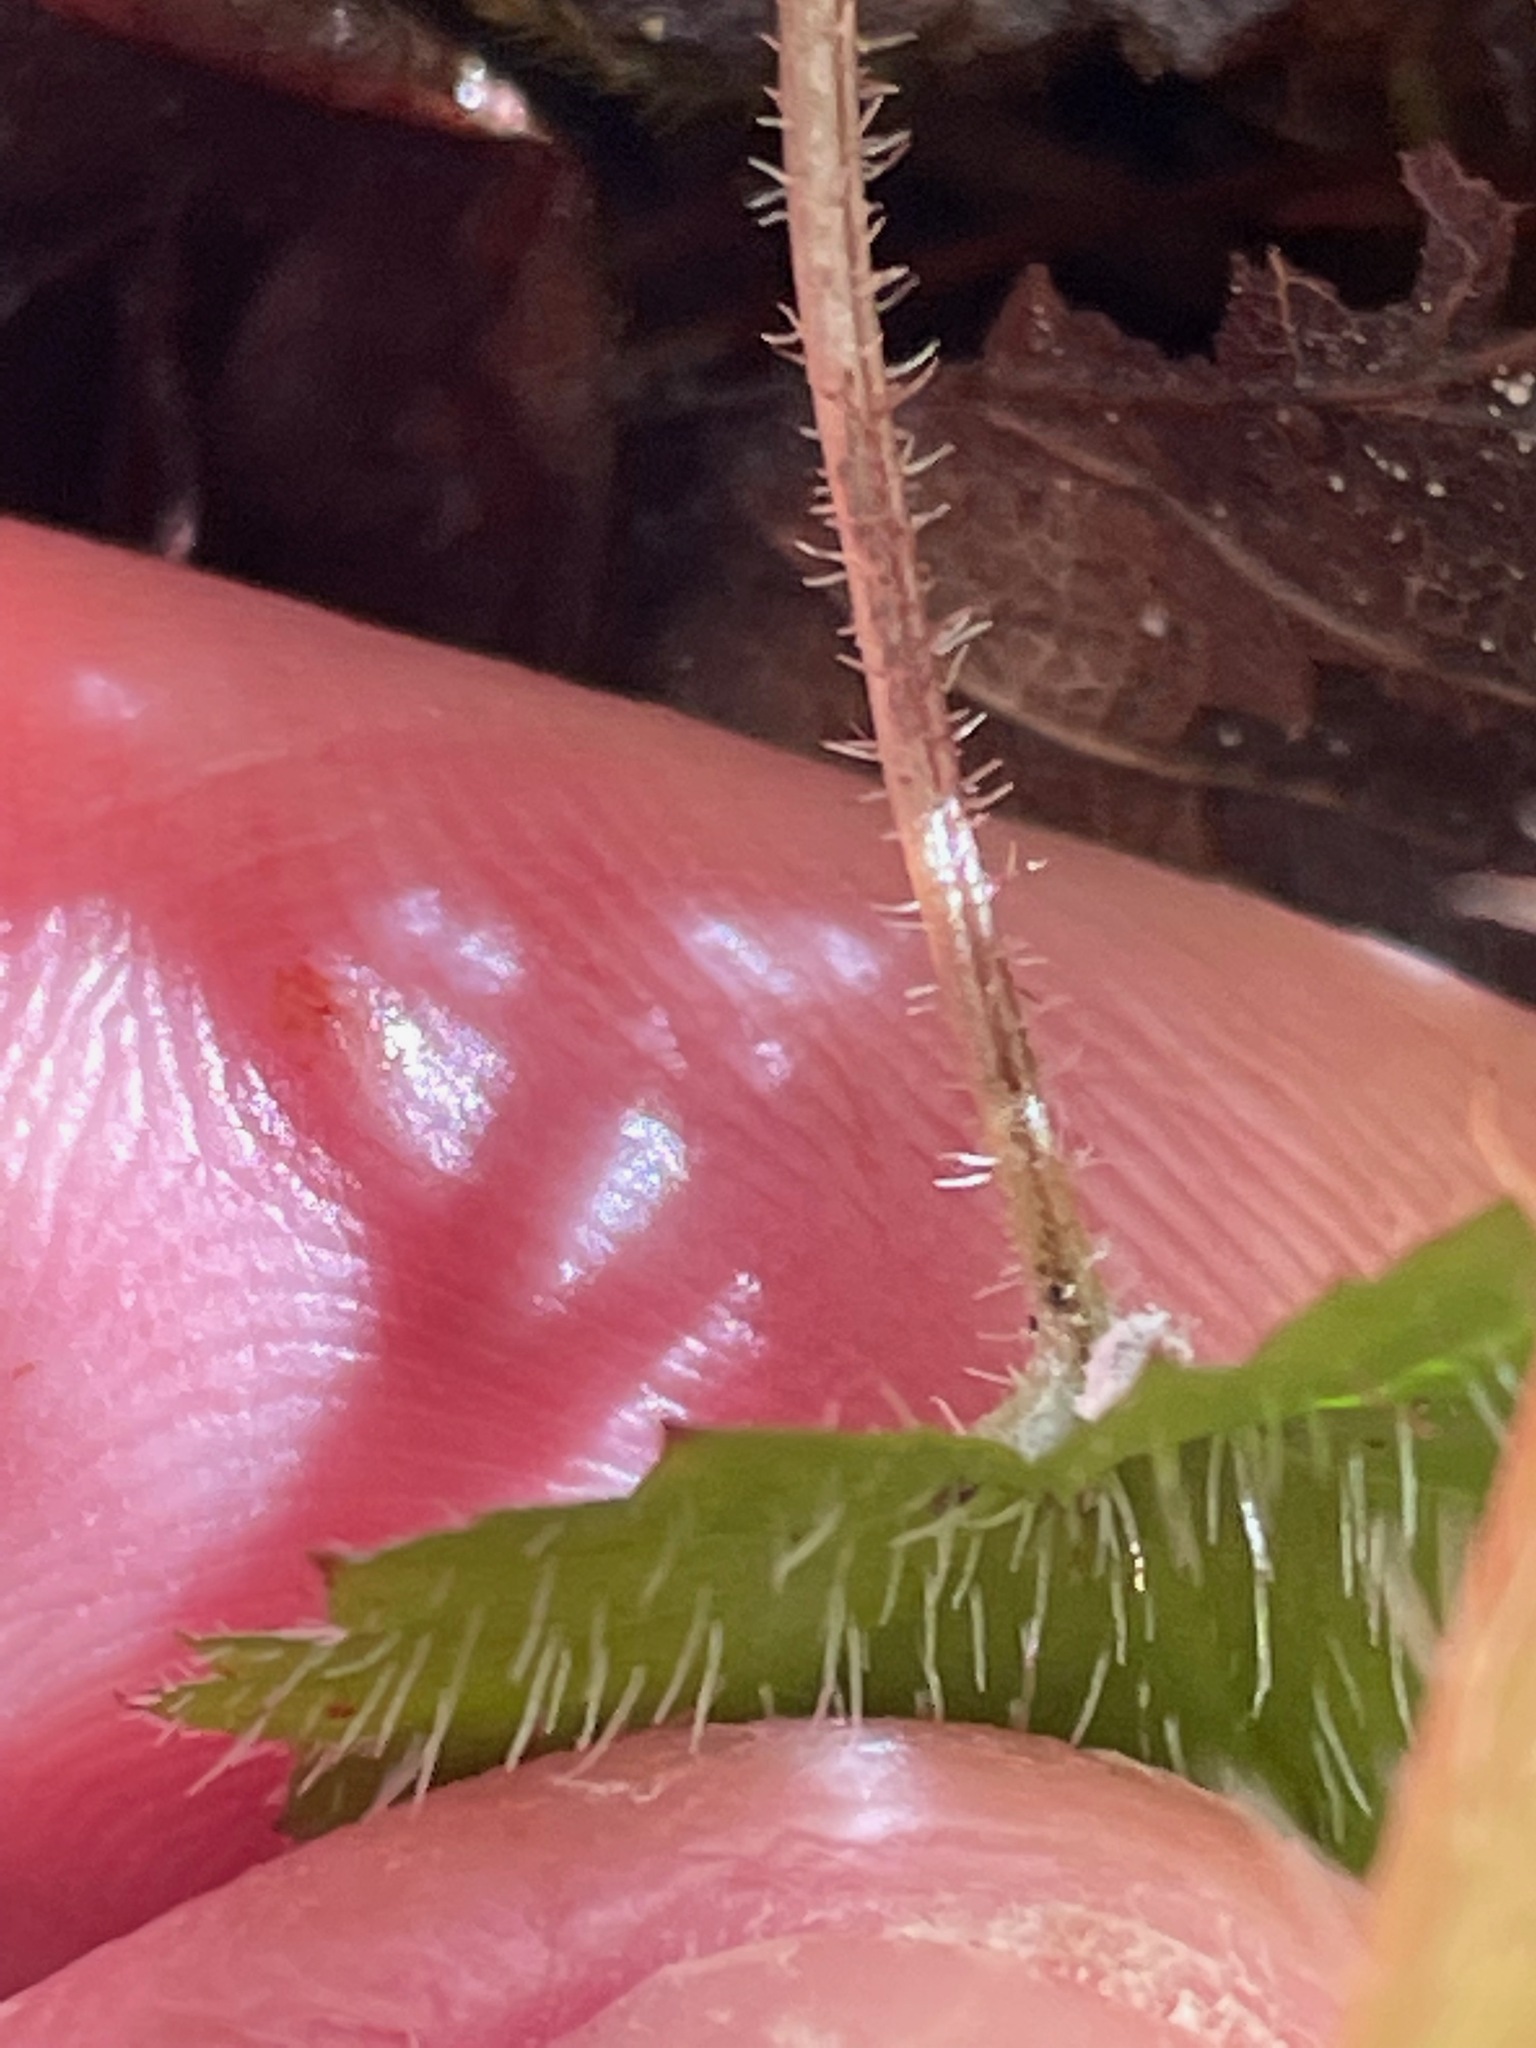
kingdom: Plantae
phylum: Tracheophyta
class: Magnoliopsida
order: Saxifragales
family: Saxifragaceae
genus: Tiarella
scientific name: Tiarella stolonifera
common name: Stoloniferous foamflower
